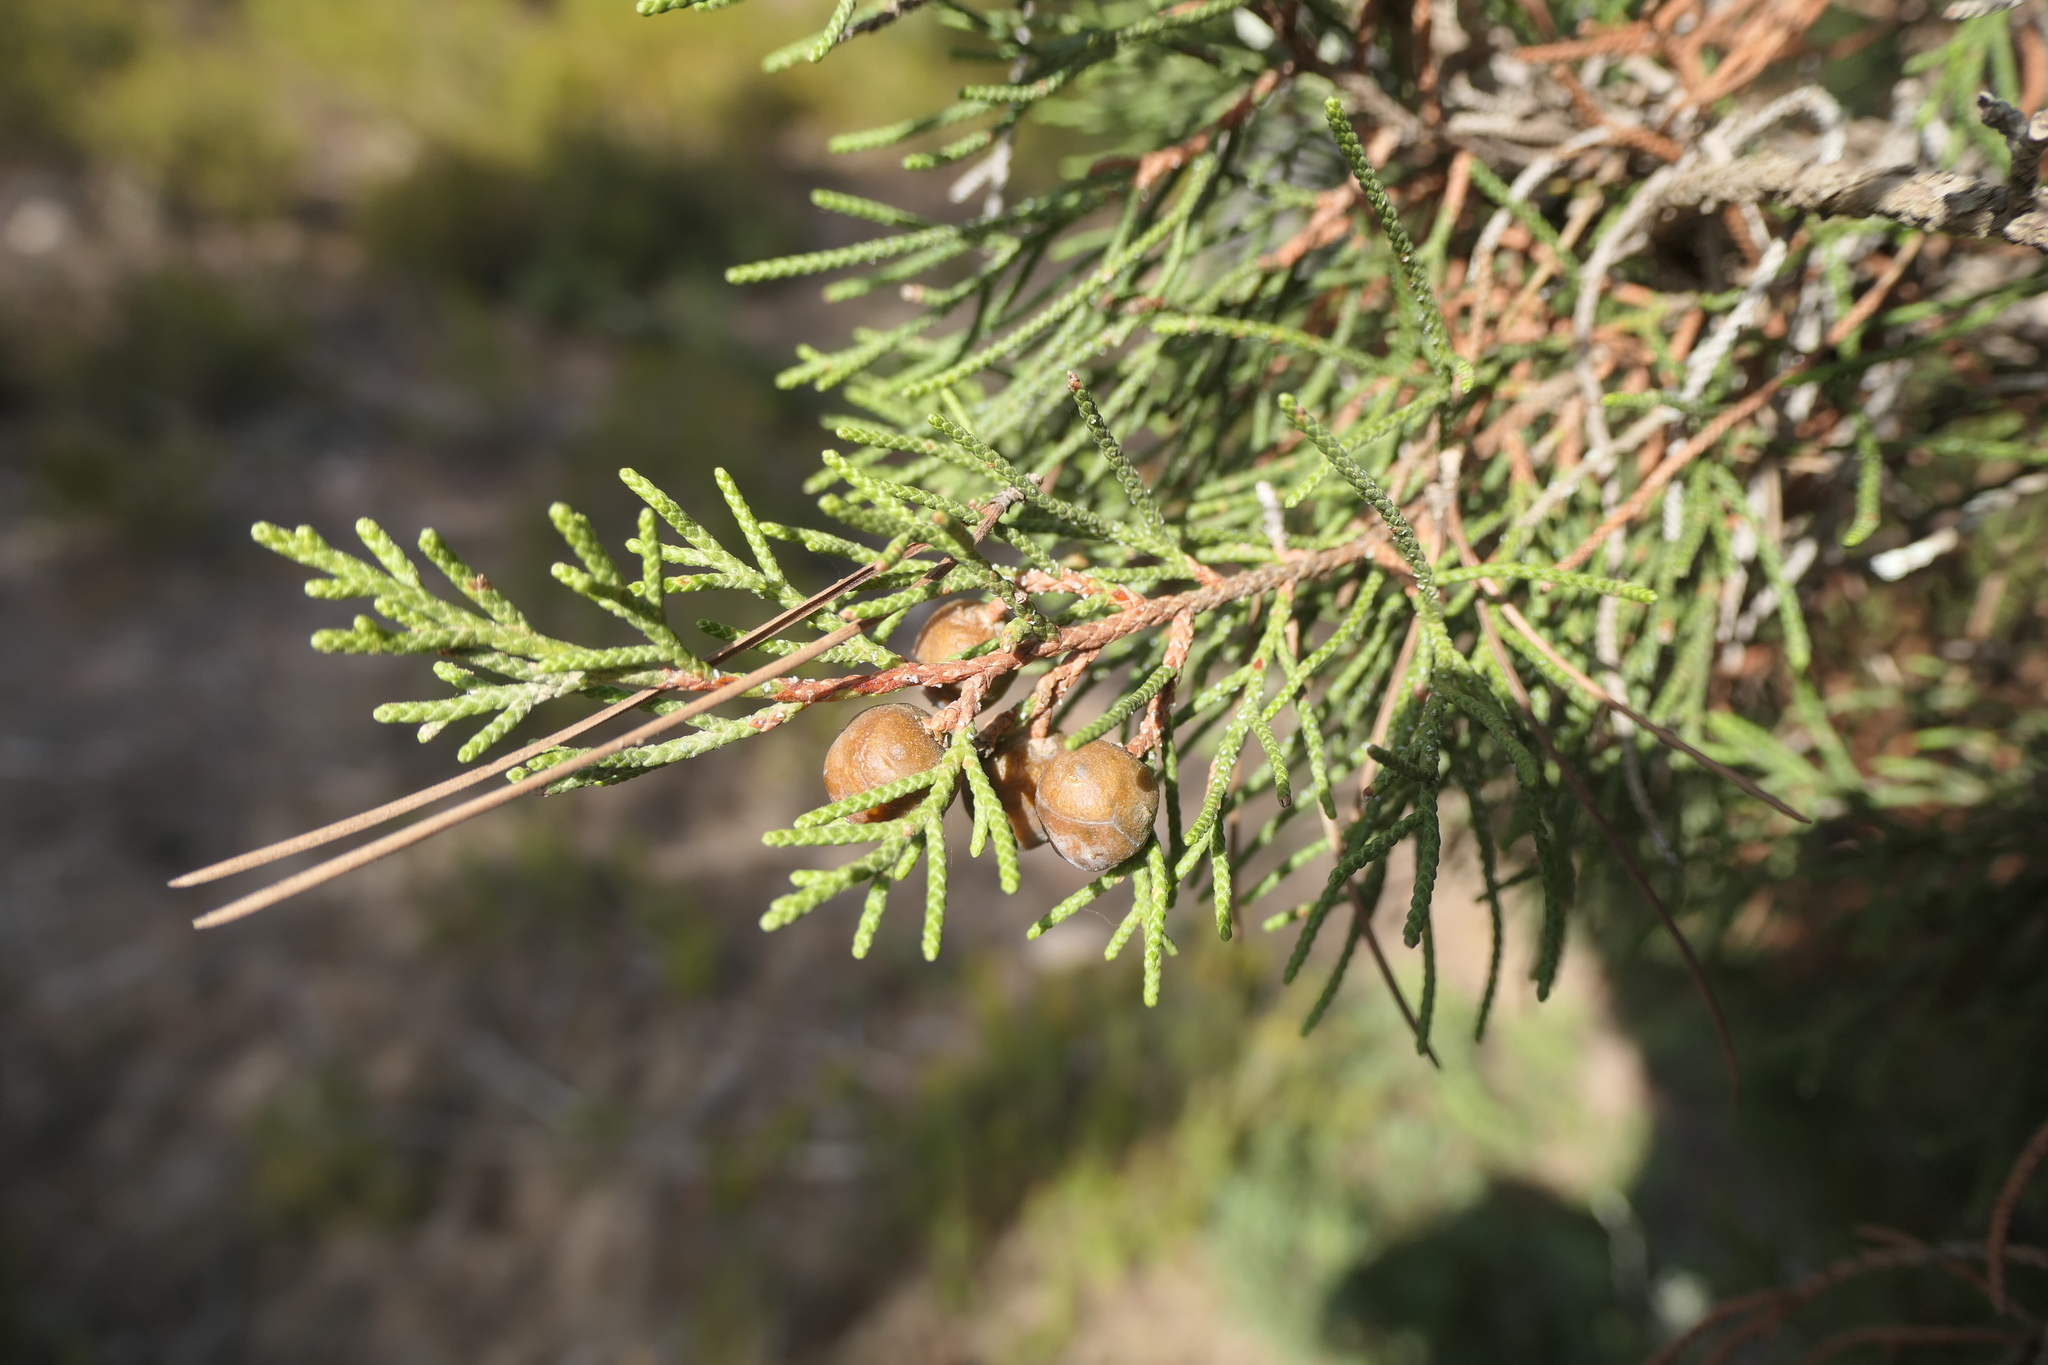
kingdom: Plantae
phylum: Tracheophyta
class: Pinopsida
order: Pinales
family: Cupressaceae
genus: Juniperus
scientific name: Juniperus phoenicea
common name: Phoenician juniper
